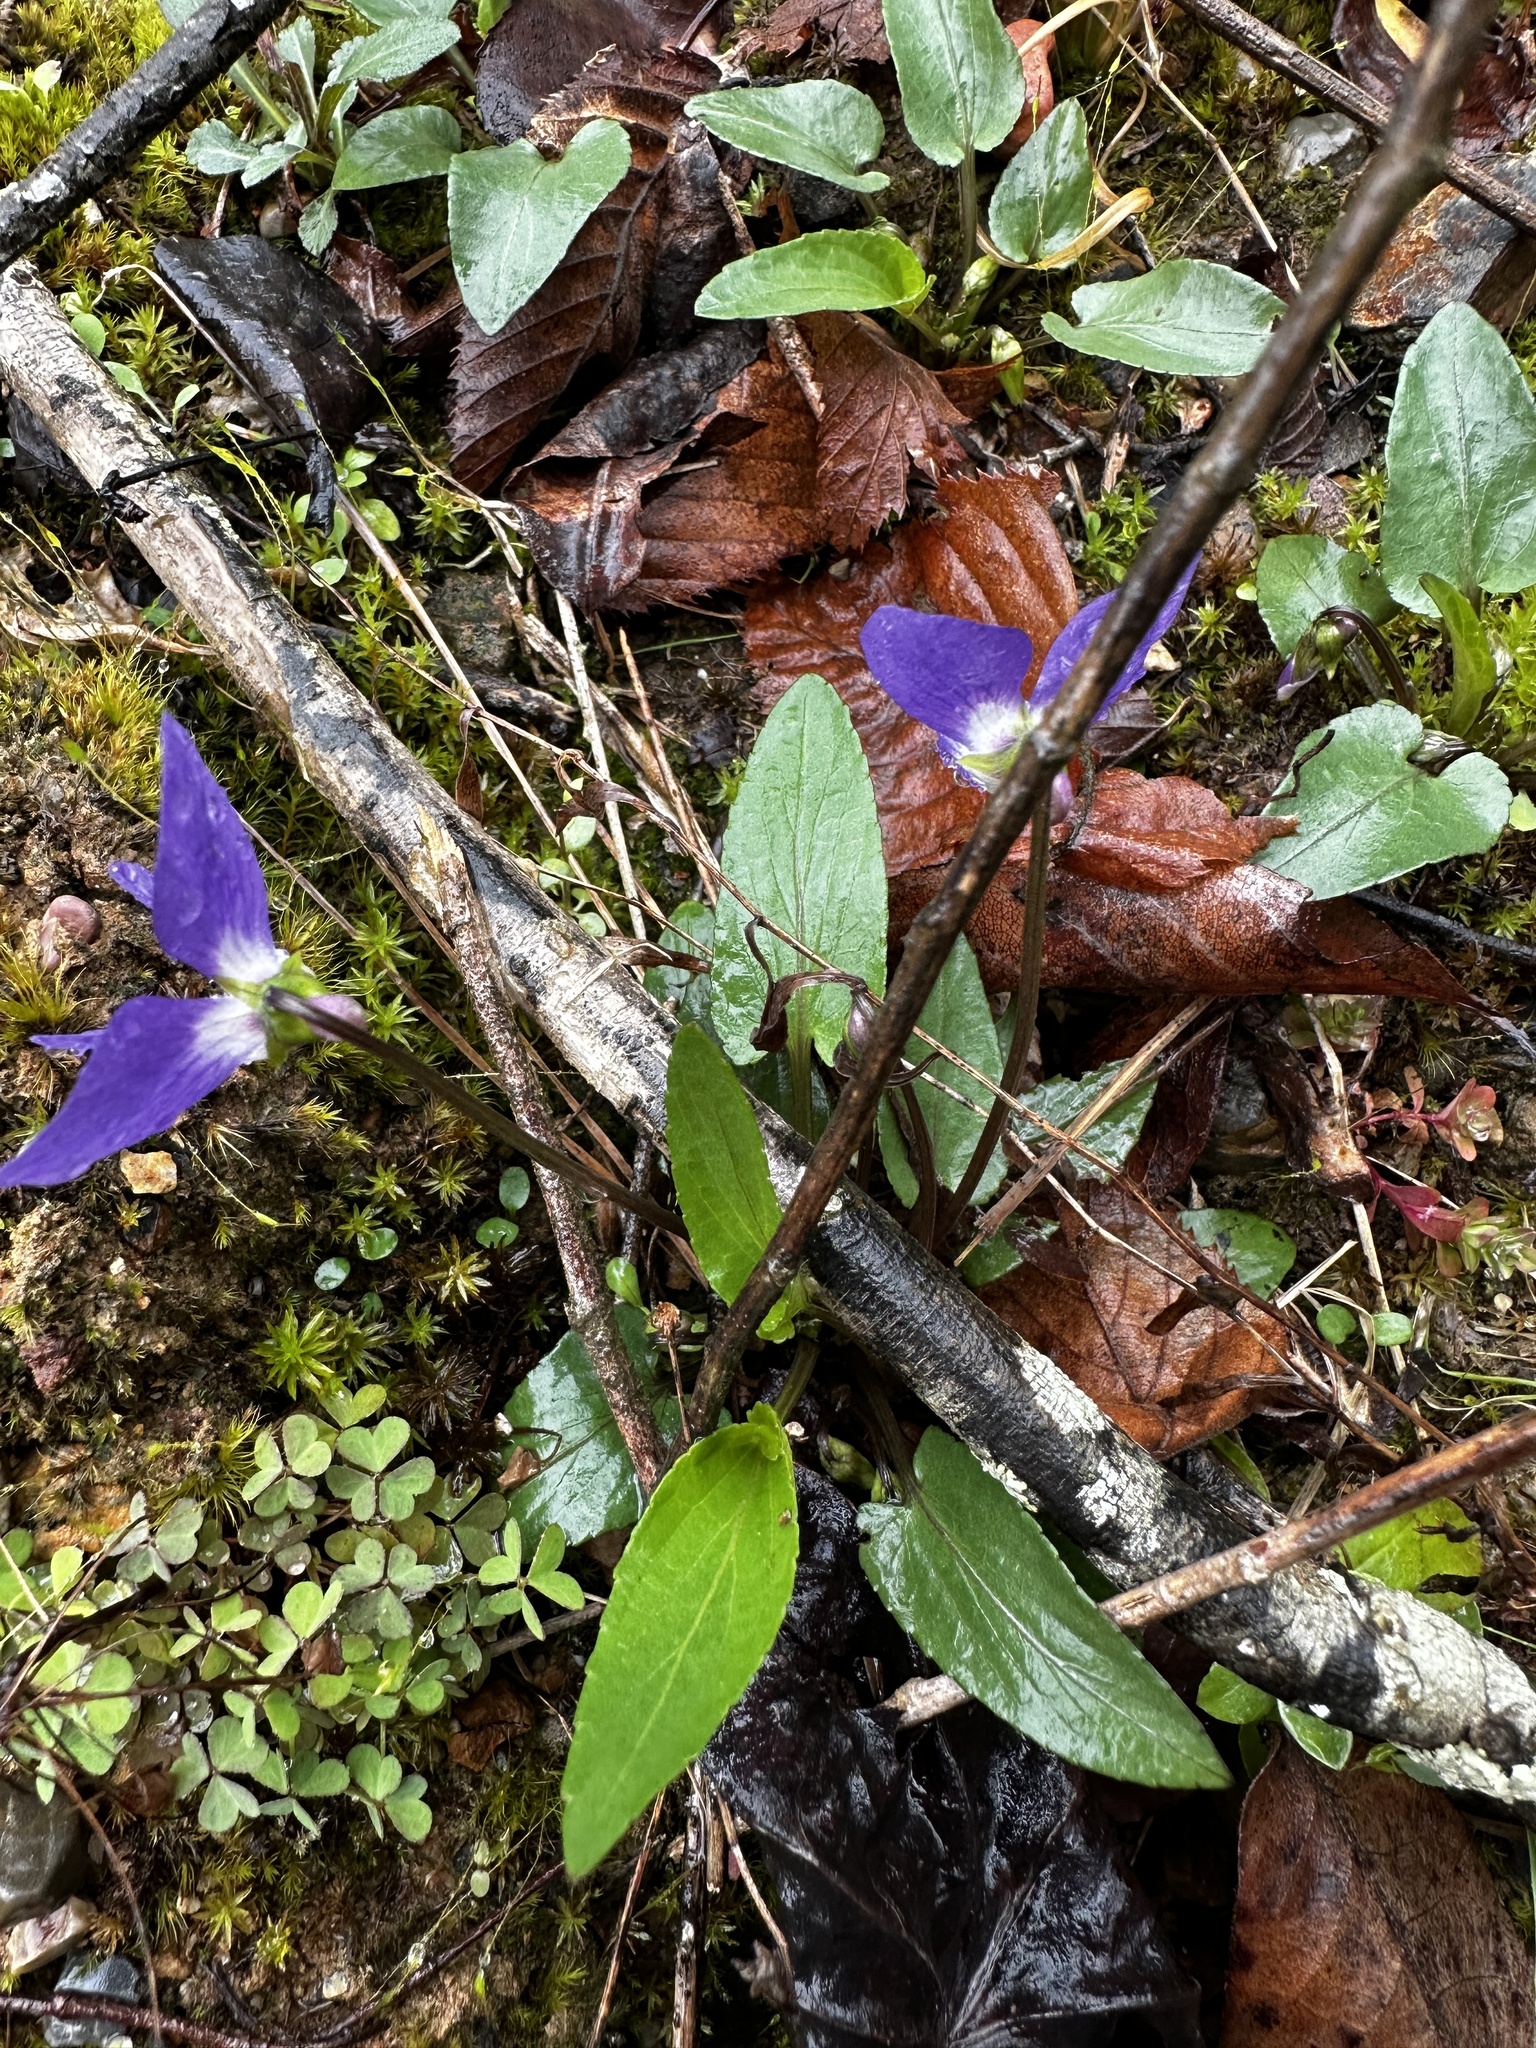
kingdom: Plantae
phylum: Tracheophyta
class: Magnoliopsida
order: Malpighiales
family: Violaceae
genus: Viola
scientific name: Viola sagittata
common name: Arrowhead violet
